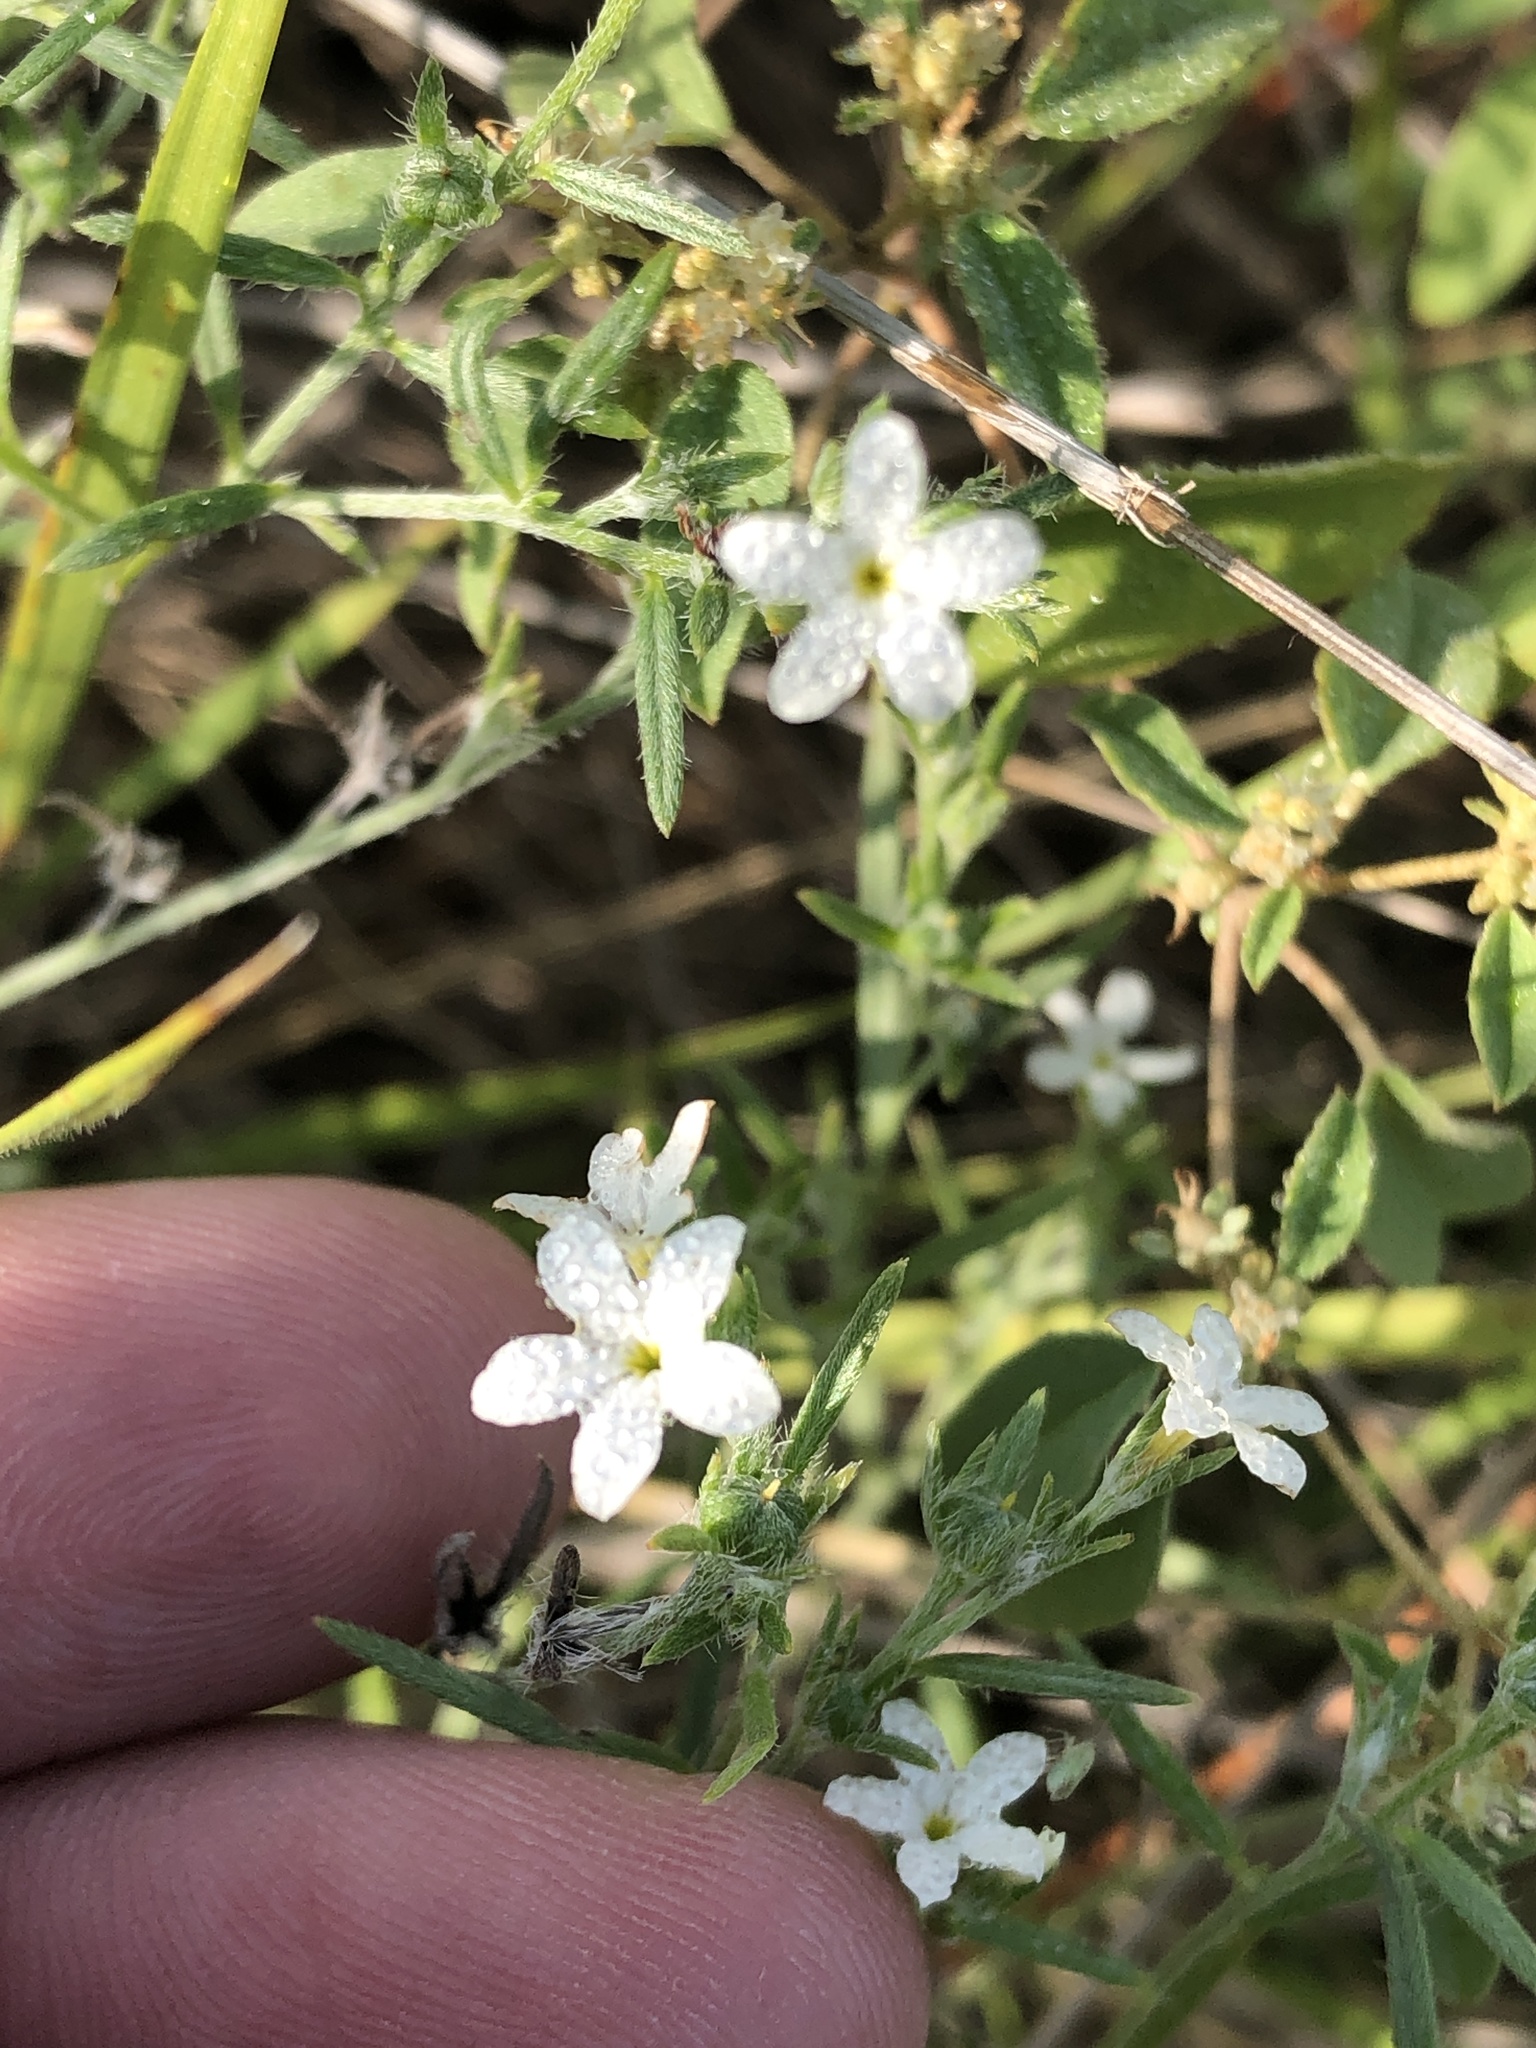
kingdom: Plantae
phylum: Tracheophyta
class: Magnoliopsida
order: Boraginales
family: Heliotropiaceae
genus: Euploca
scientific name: Euploca tenella
